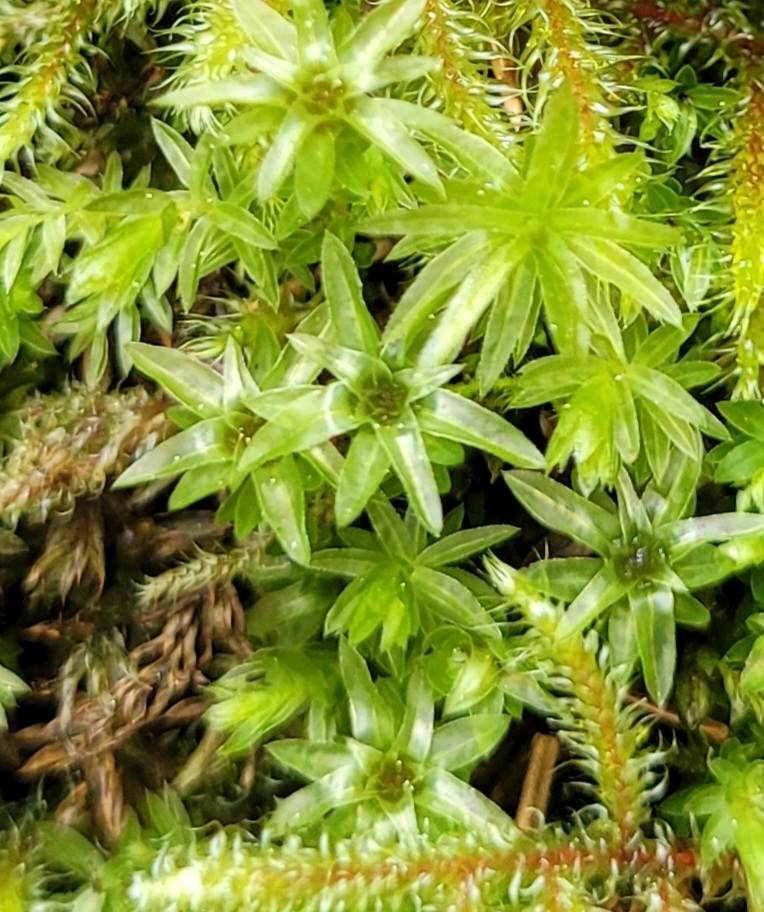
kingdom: Plantae
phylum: Bryophyta
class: Bryopsida
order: Bryales
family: Mniaceae
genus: Mnium
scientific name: Mnium hornum
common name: Swan's-neck leafy moss
